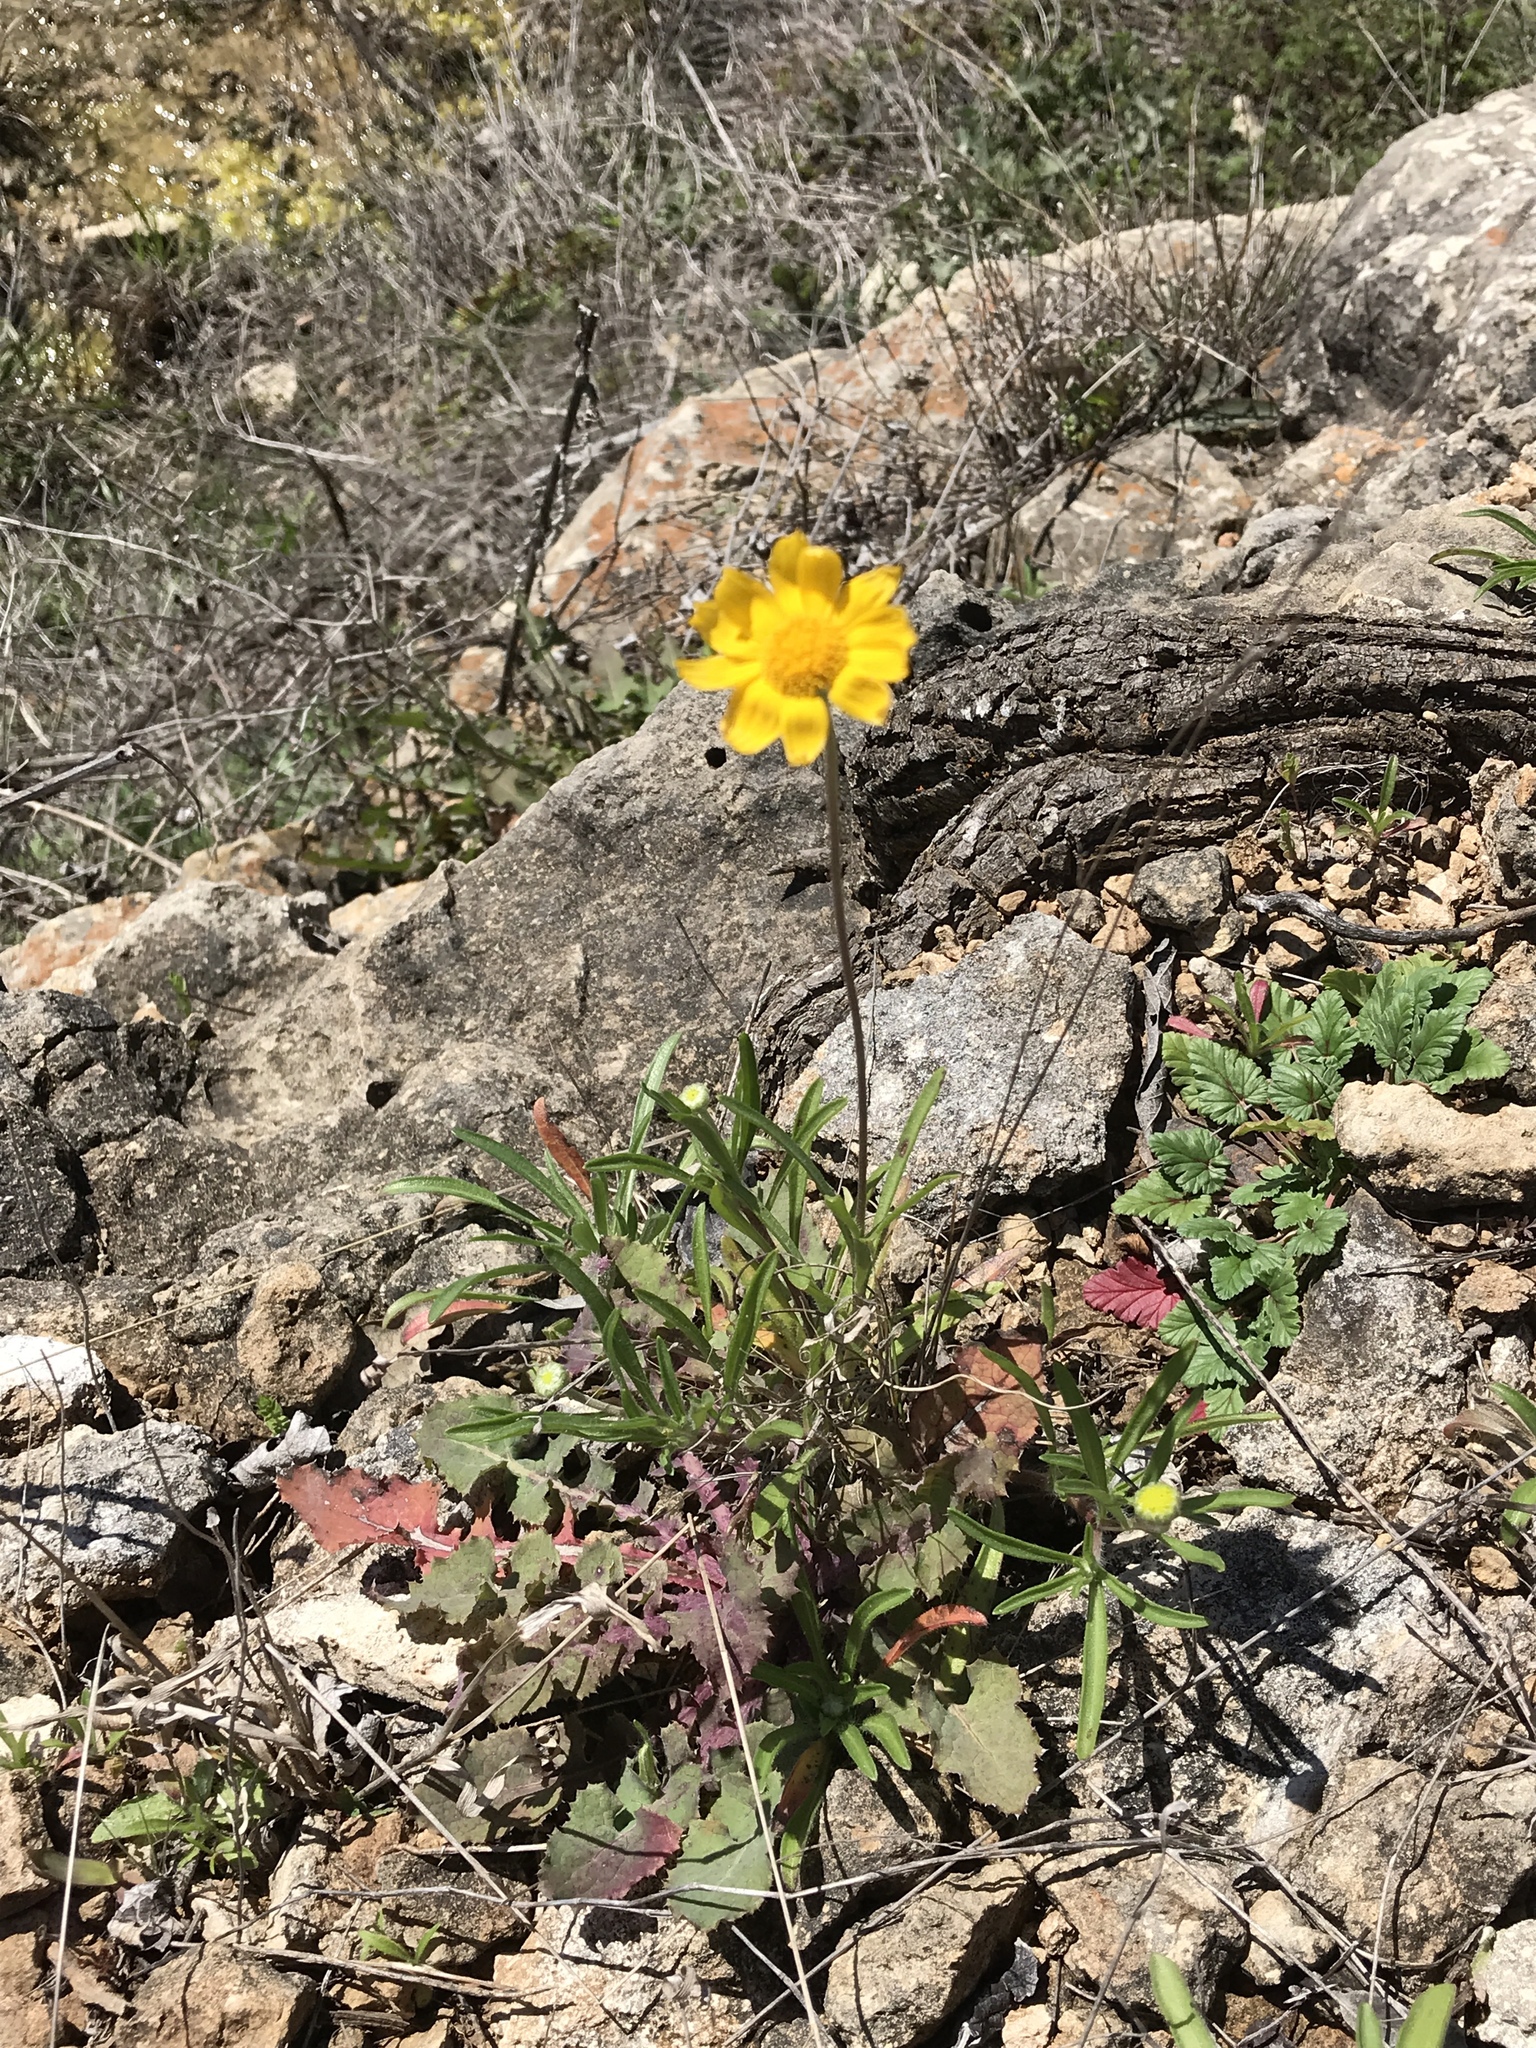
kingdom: Plantae
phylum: Tracheophyta
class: Magnoliopsida
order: Asterales
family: Asteraceae
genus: Tetraneuris
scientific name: Tetraneuris scaposa
